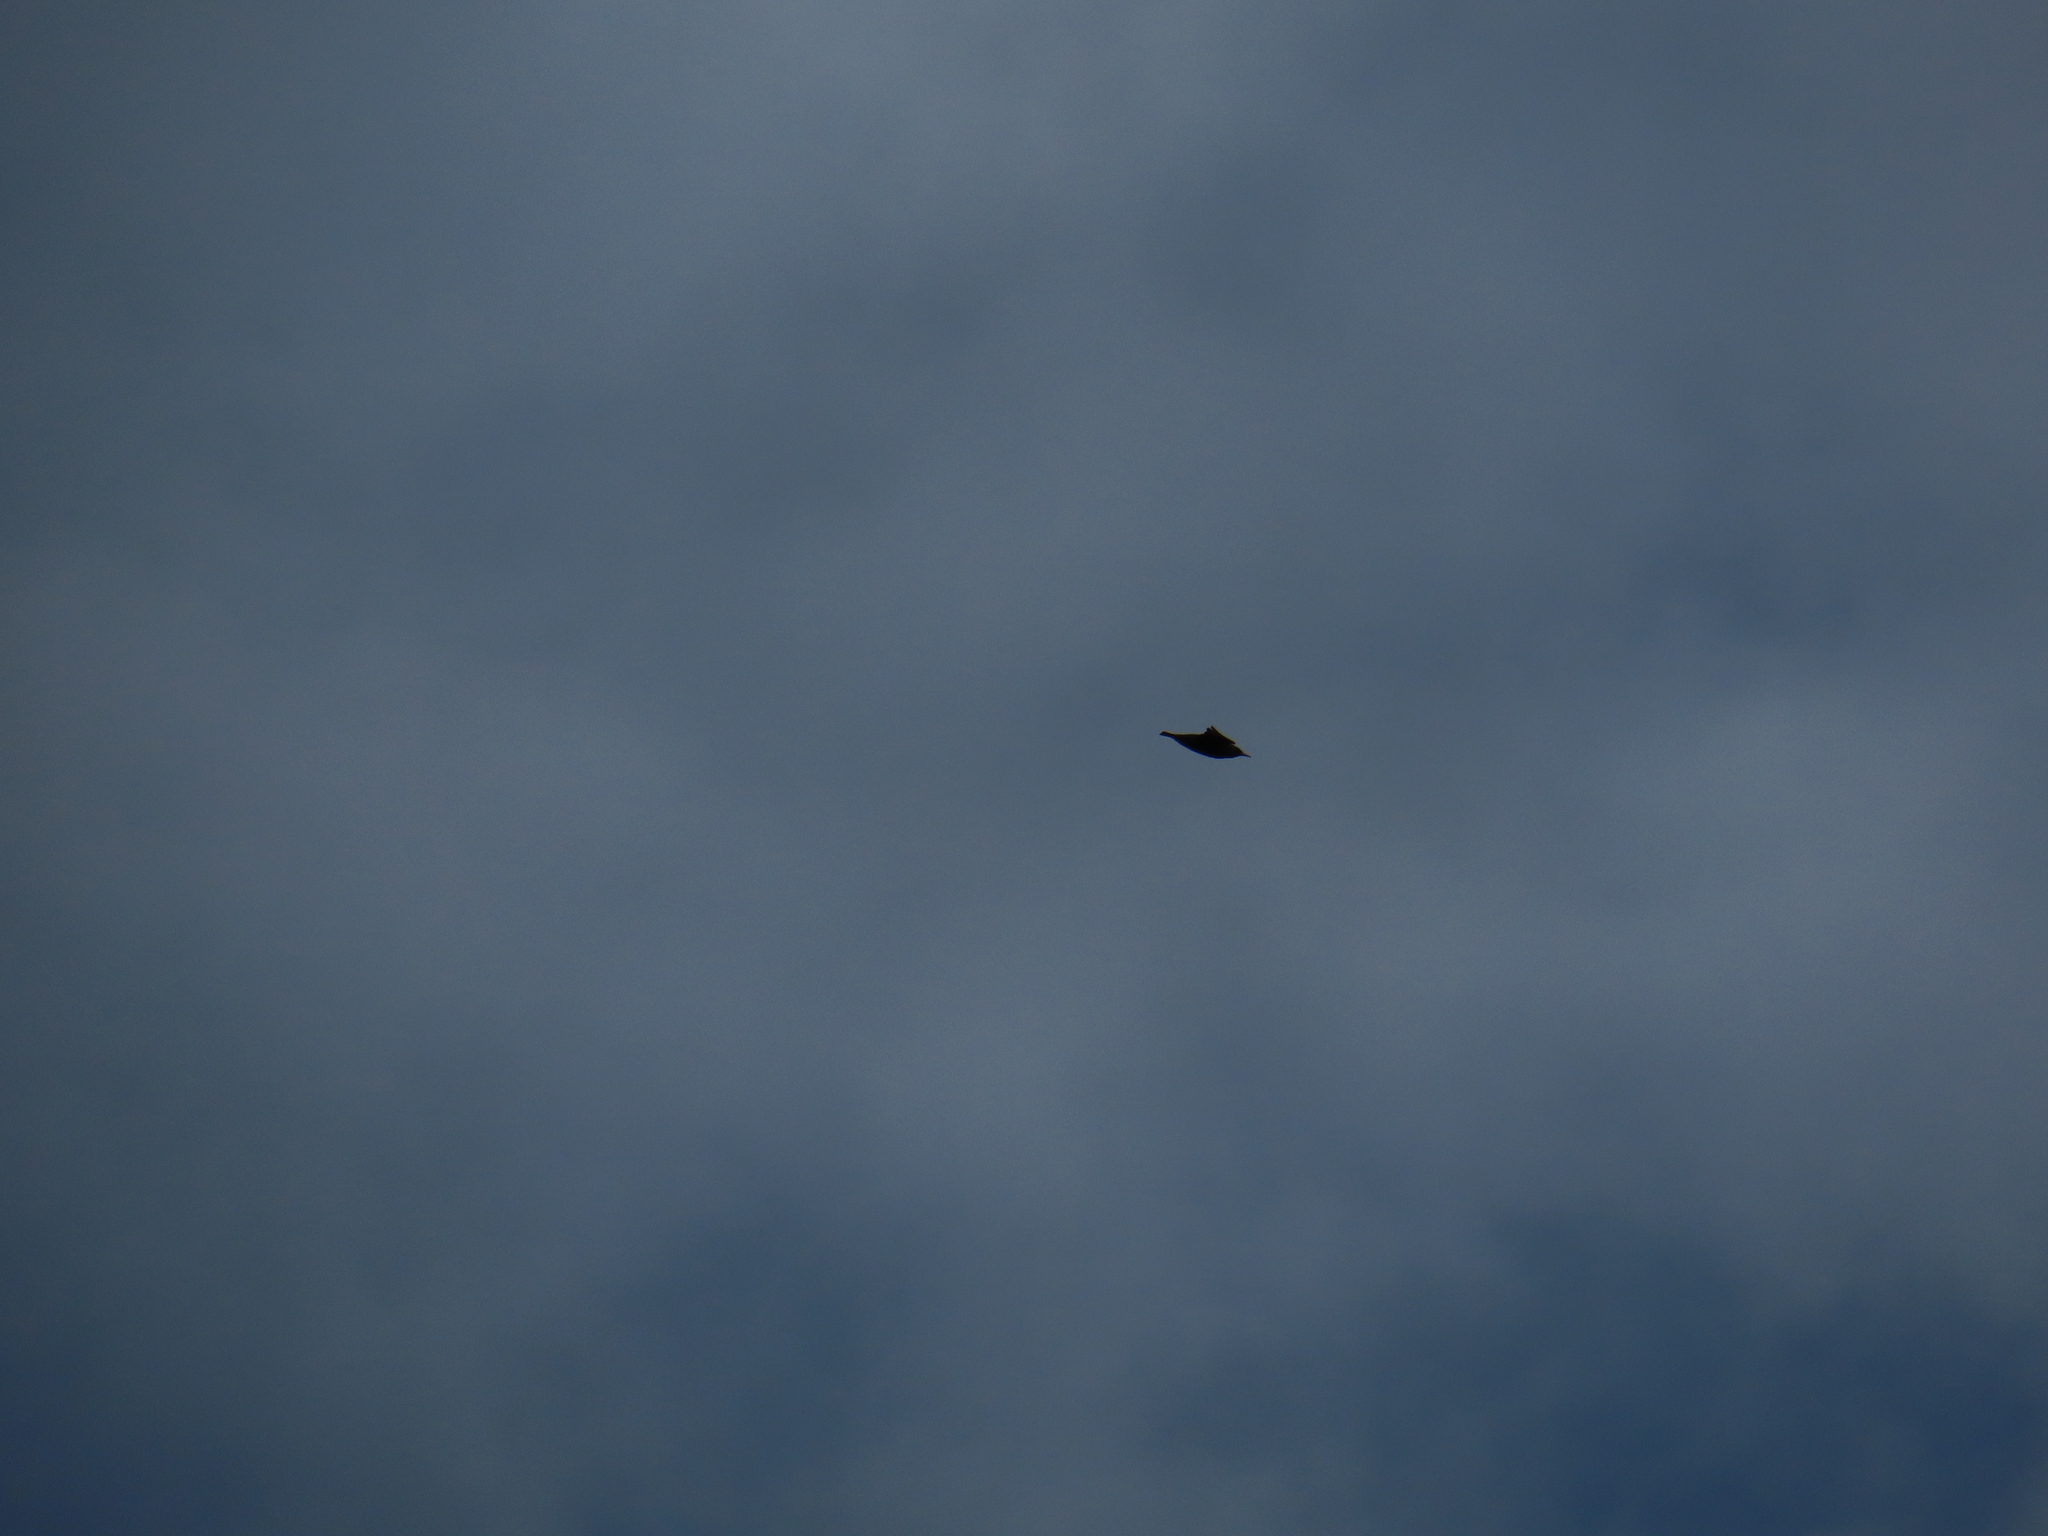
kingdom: Animalia
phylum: Chordata
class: Aves
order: Passeriformes
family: Sturnidae
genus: Sturnus
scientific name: Sturnus vulgaris
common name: Common starling
